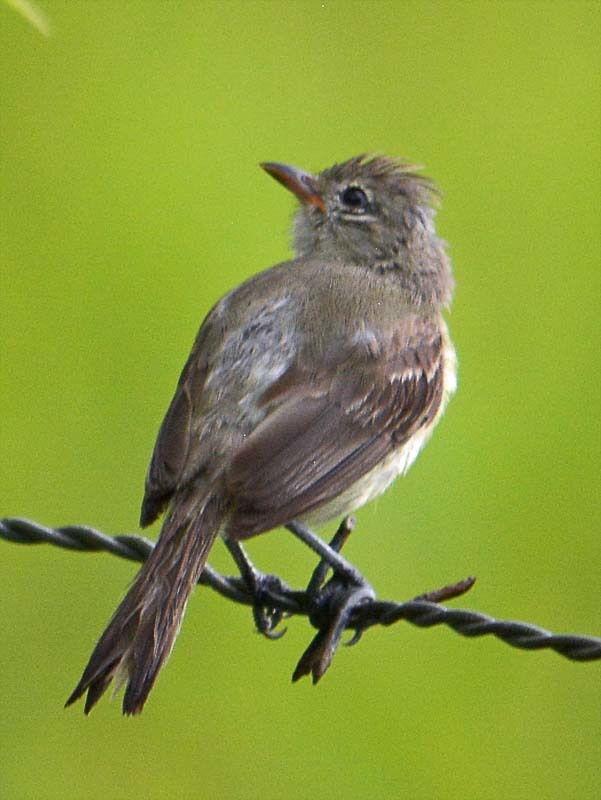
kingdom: Animalia
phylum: Chordata
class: Aves
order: Passeriformes
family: Tyrannidae
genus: Elaenia
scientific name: Elaenia flavogaster
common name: Yellow-bellied elaenia
